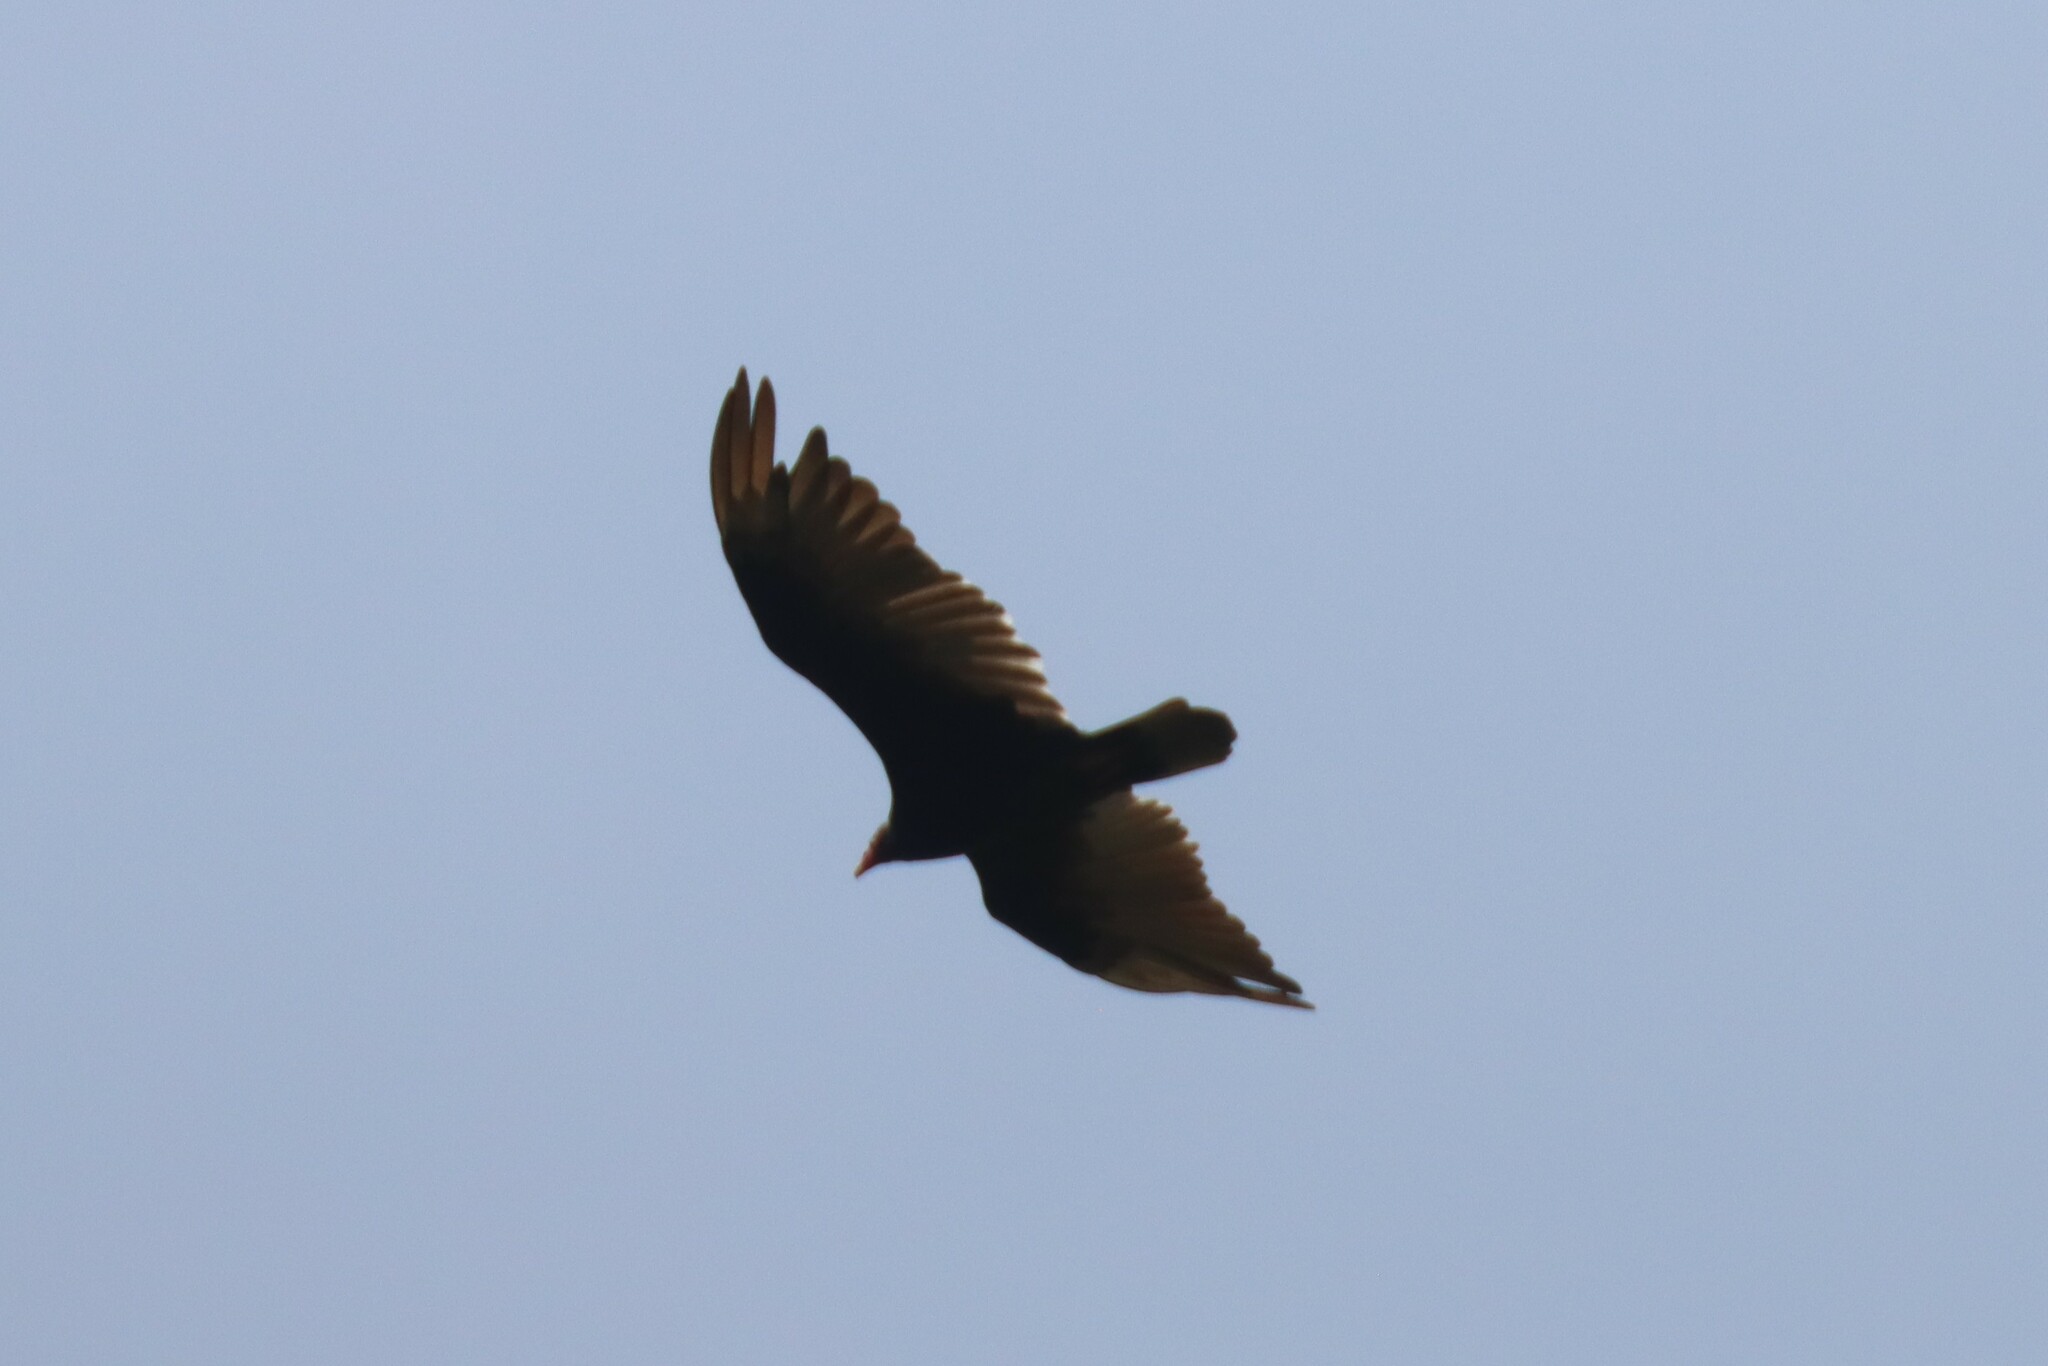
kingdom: Animalia
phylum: Chordata
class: Aves
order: Accipitriformes
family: Cathartidae
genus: Cathartes
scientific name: Cathartes aura
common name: Turkey vulture
